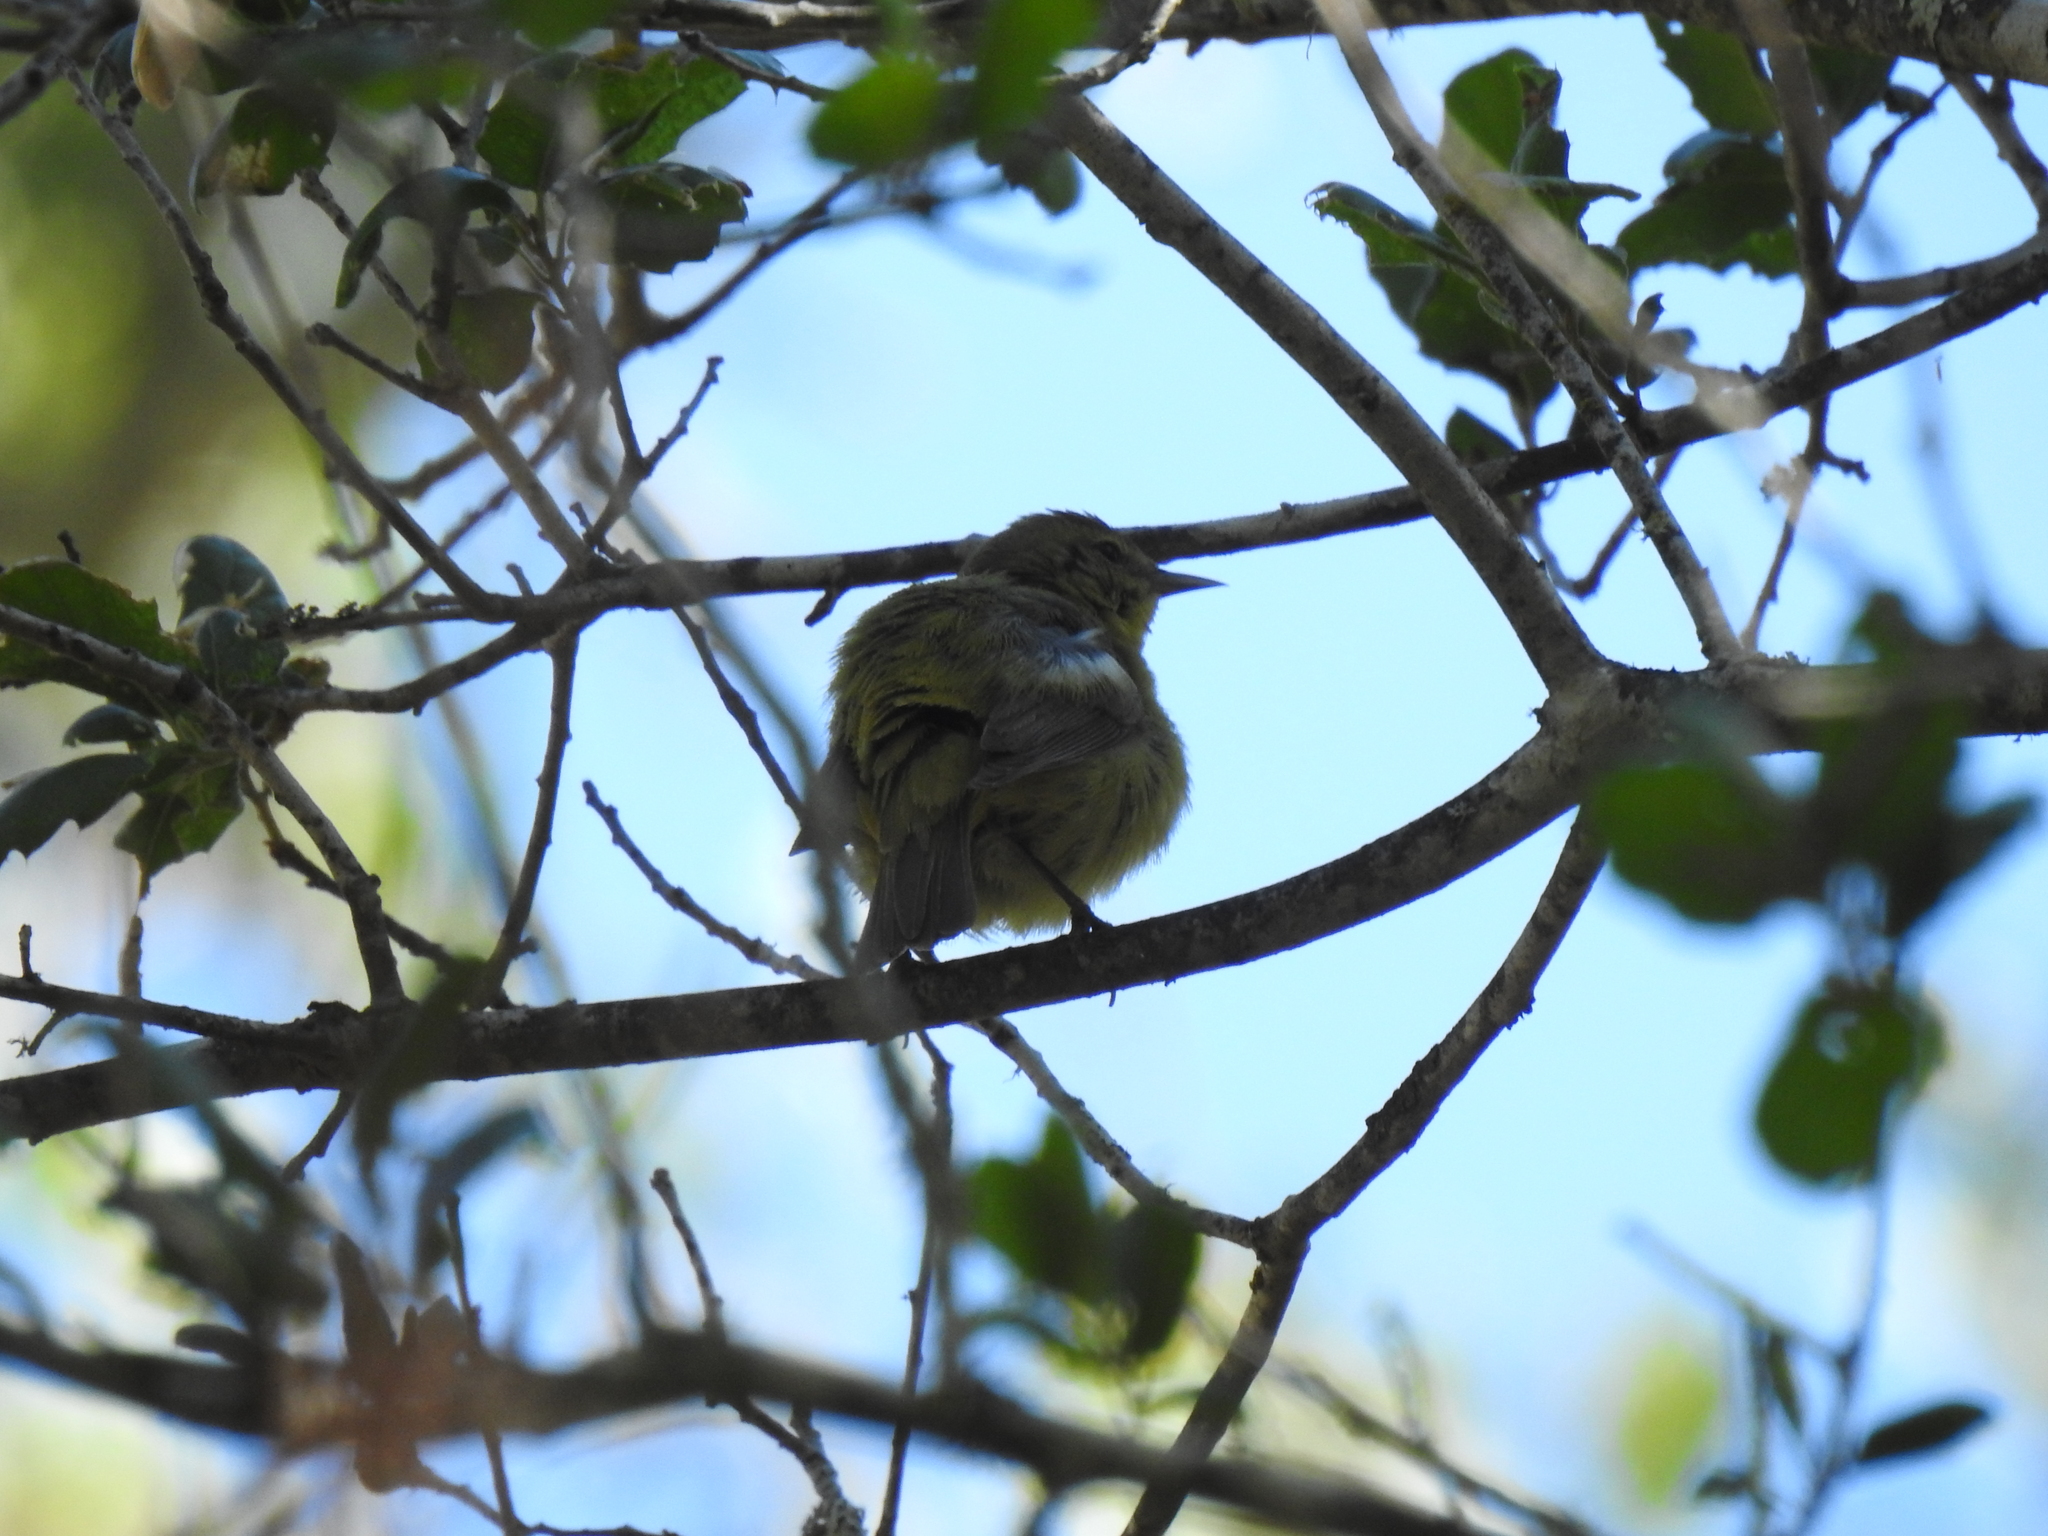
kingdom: Animalia
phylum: Chordata
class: Aves
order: Passeriformes
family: Parulidae
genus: Leiothlypis
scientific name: Leiothlypis celata
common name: Orange-crowned warbler
